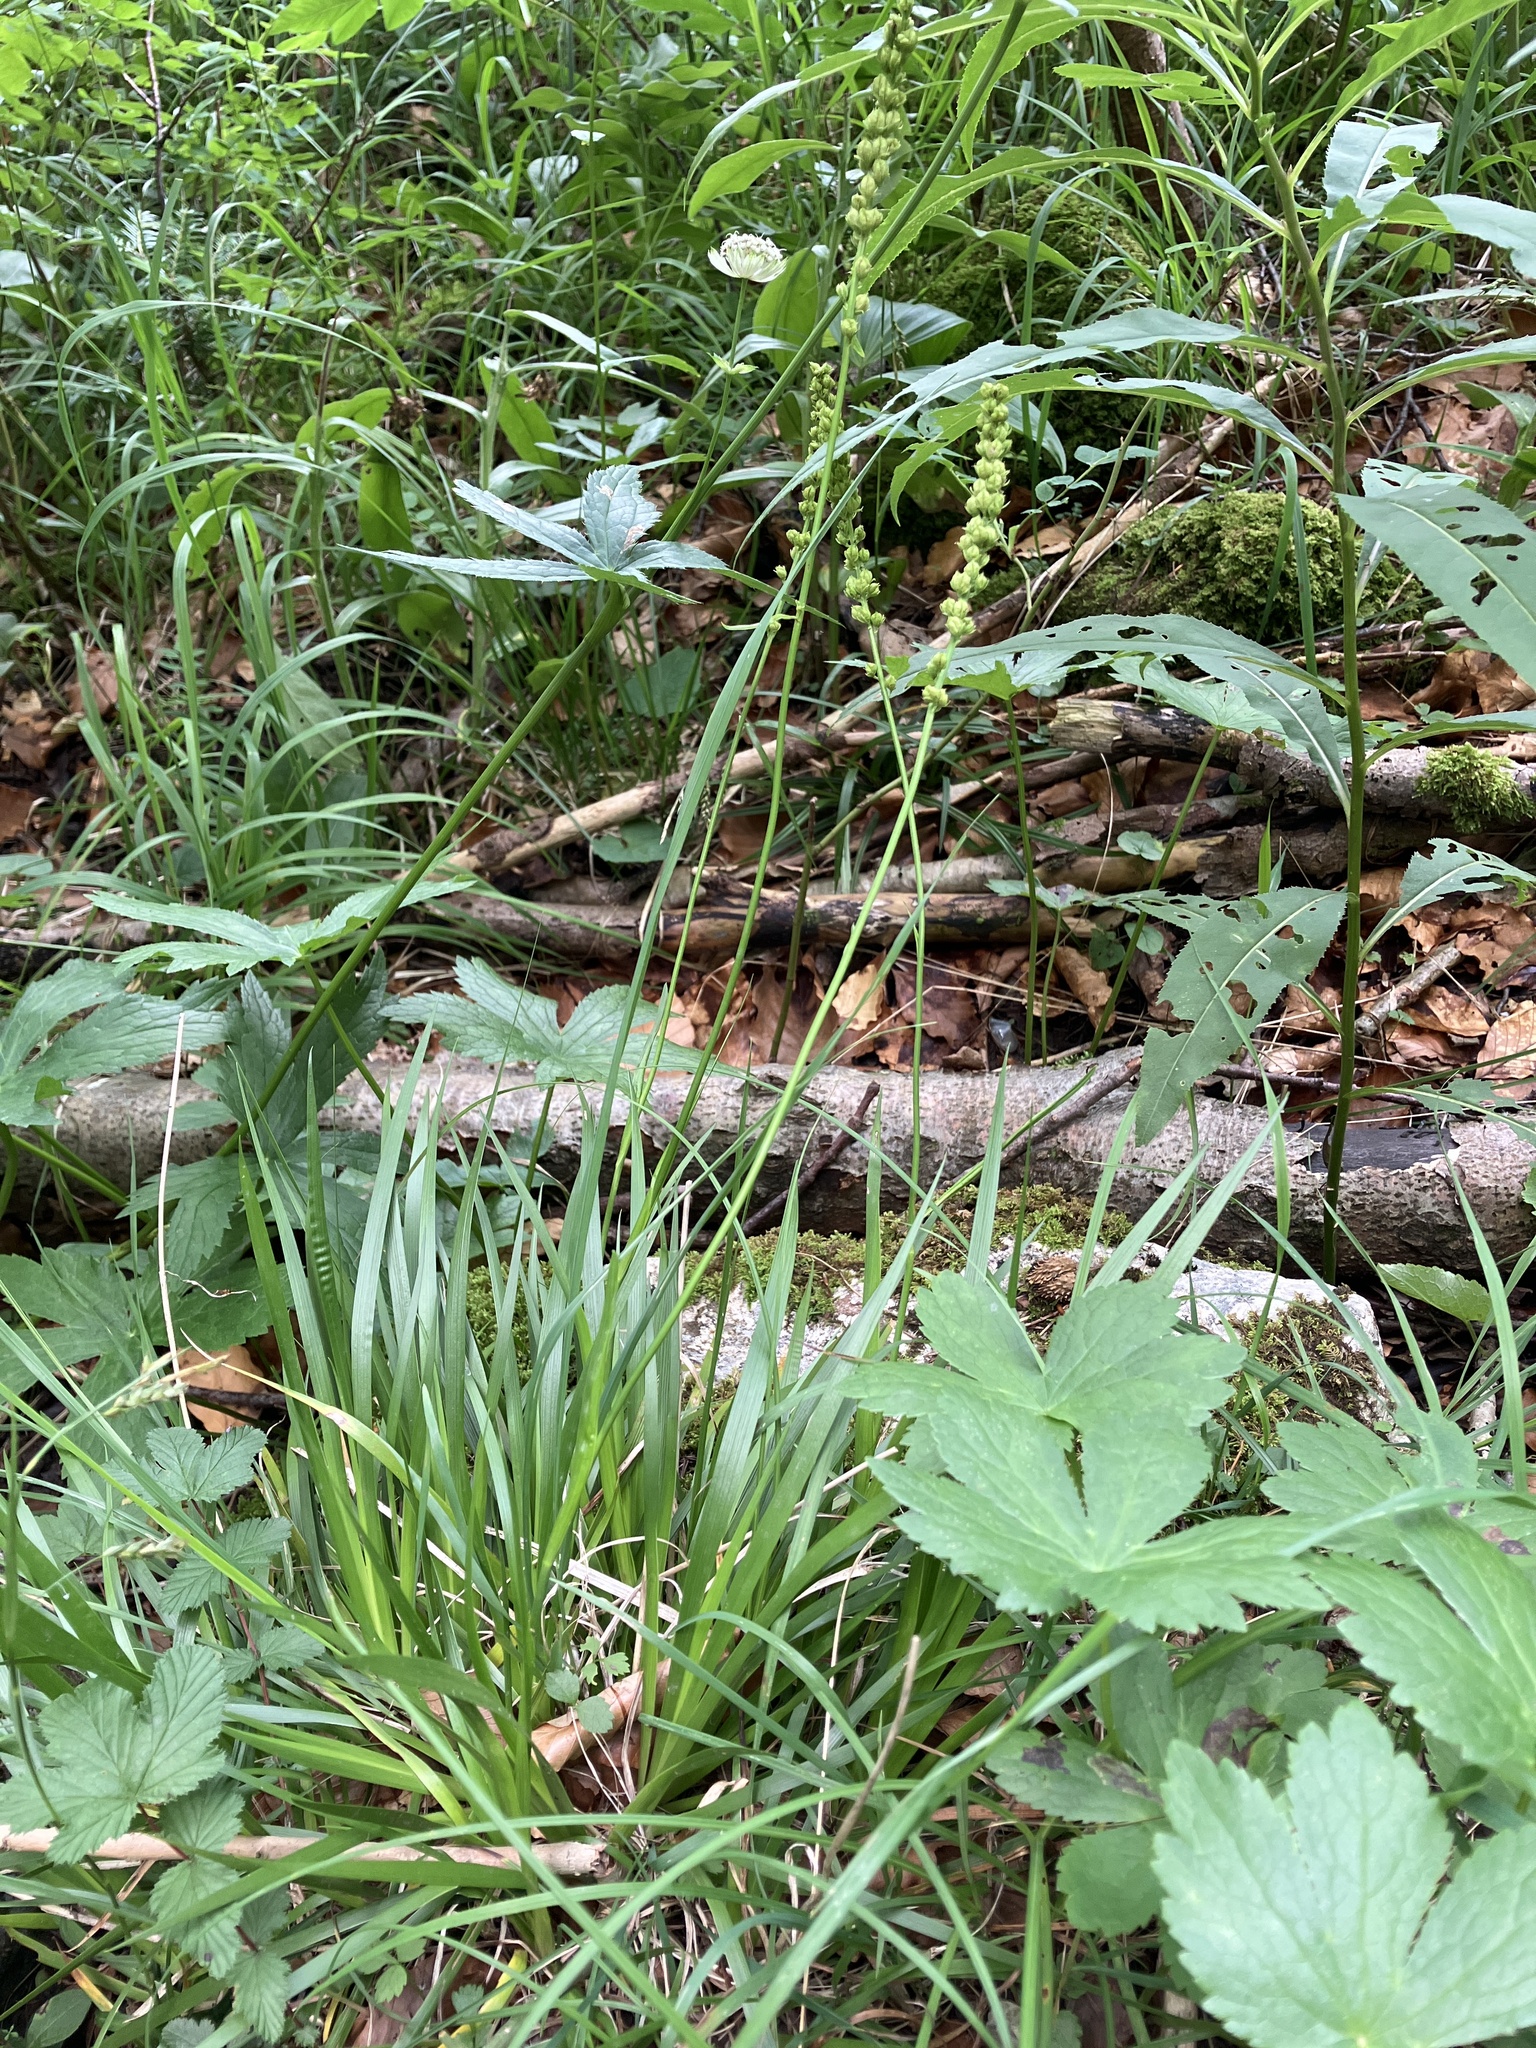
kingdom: Plantae
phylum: Tracheophyta
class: Liliopsida
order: Alismatales
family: Tofieldiaceae
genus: Tofieldia
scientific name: Tofieldia calyculata
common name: German-asphodel
